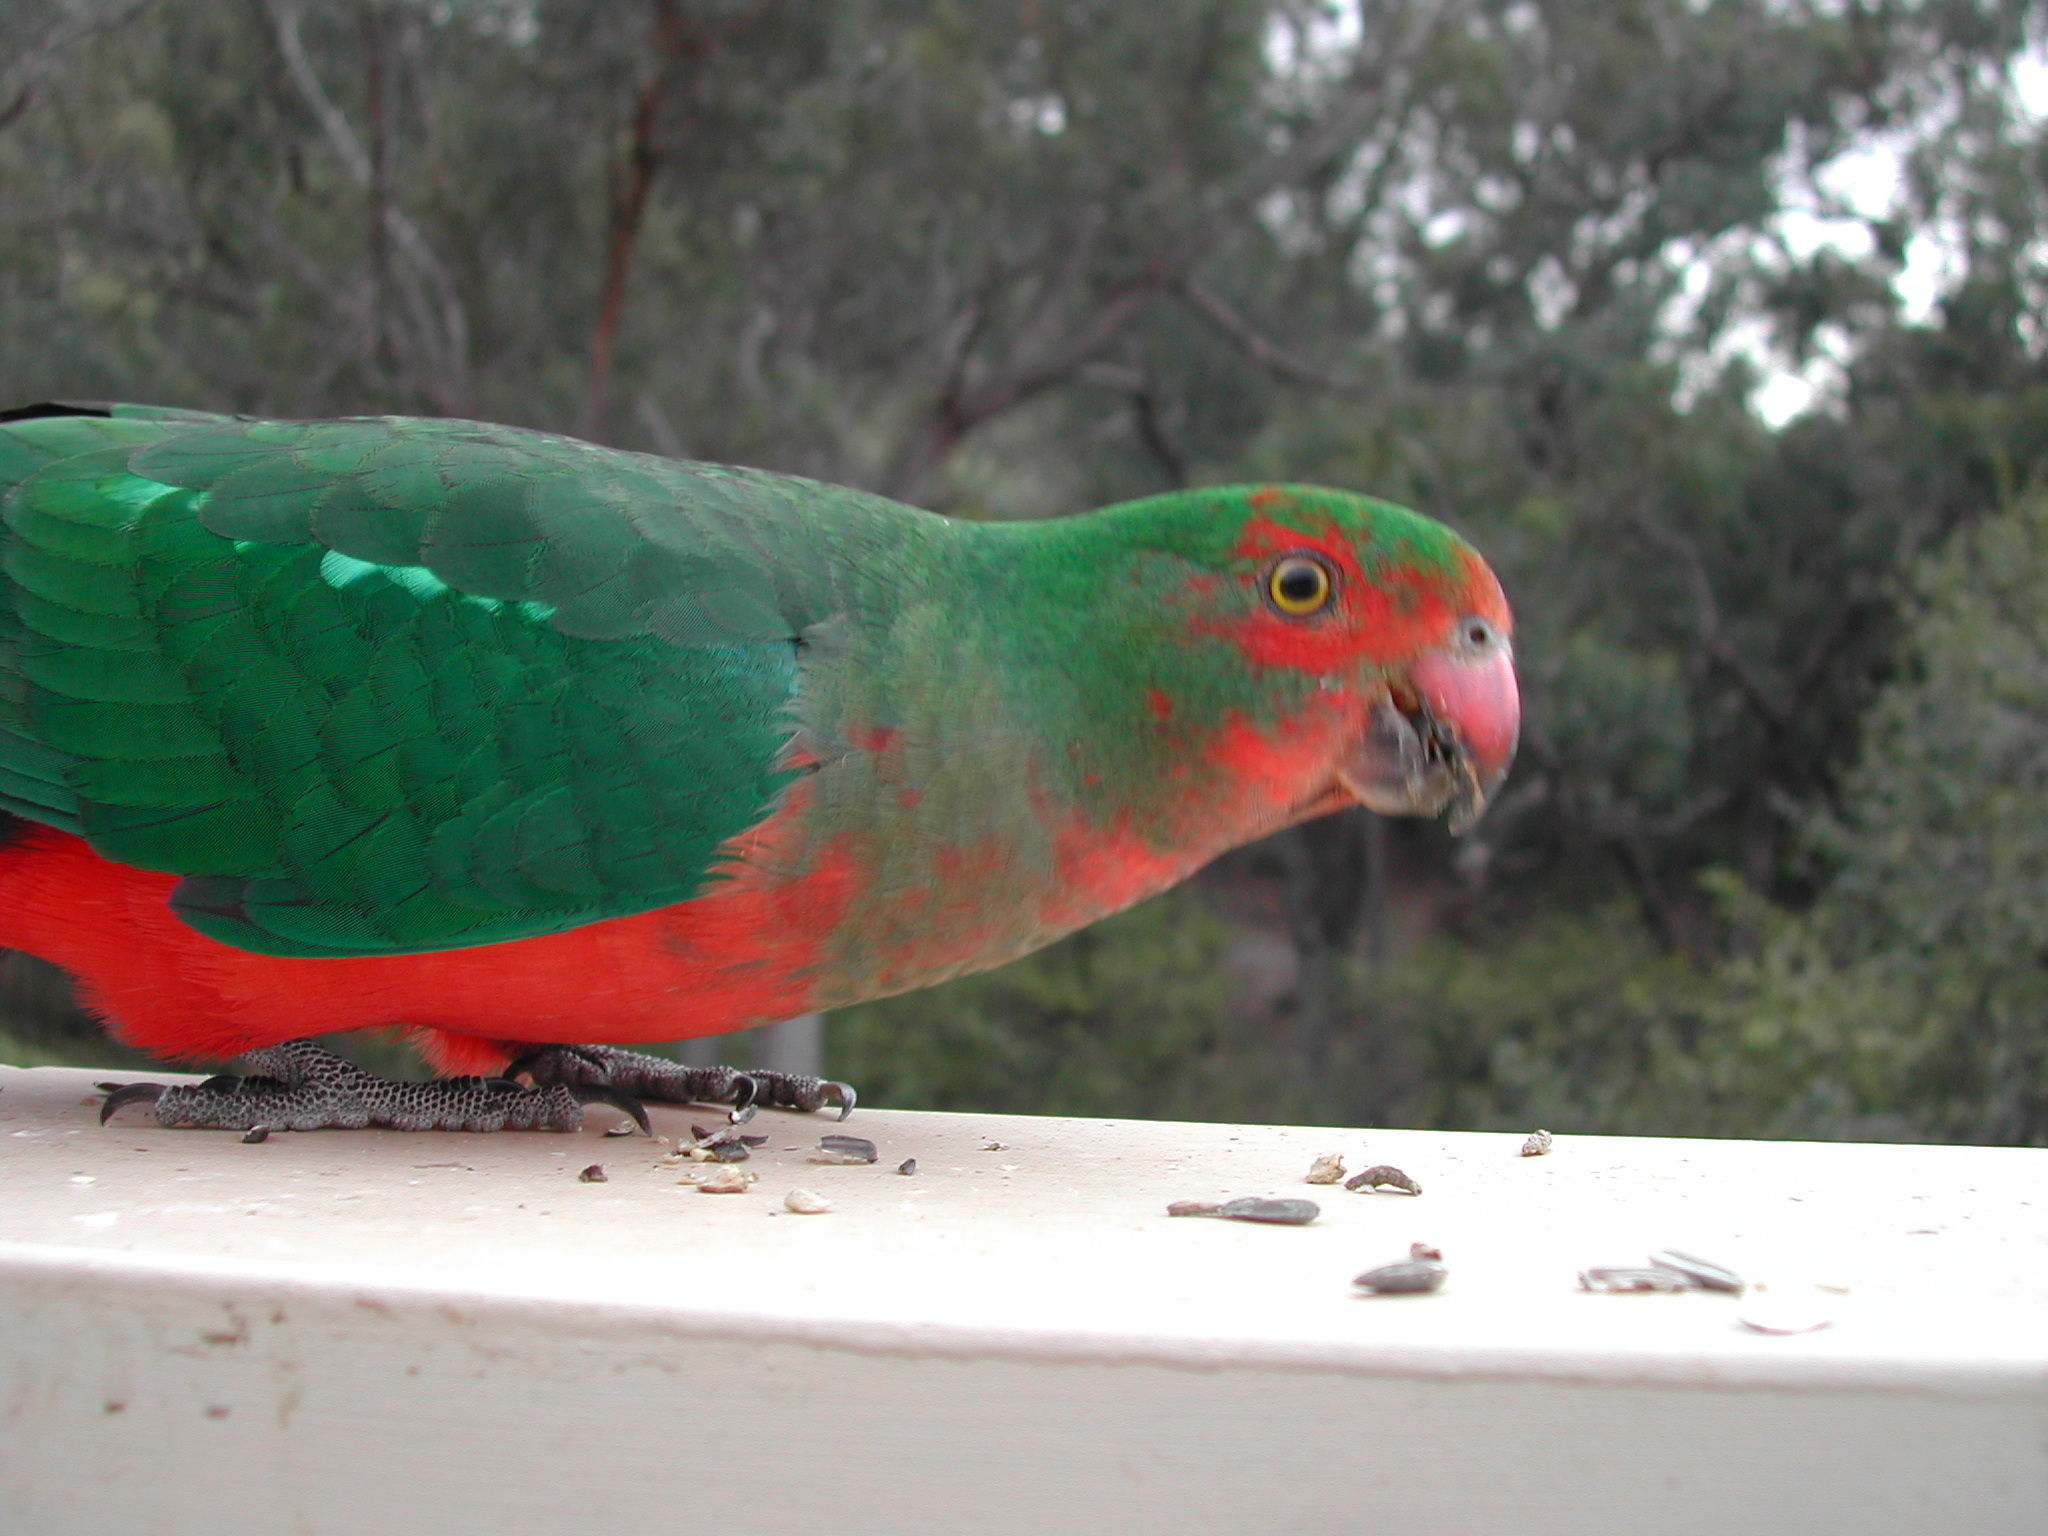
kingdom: Animalia
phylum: Chordata
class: Aves
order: Psittaciformes
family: Psittacidae
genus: Alisterus
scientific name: Alisterus scapularis
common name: Australian king parrot
